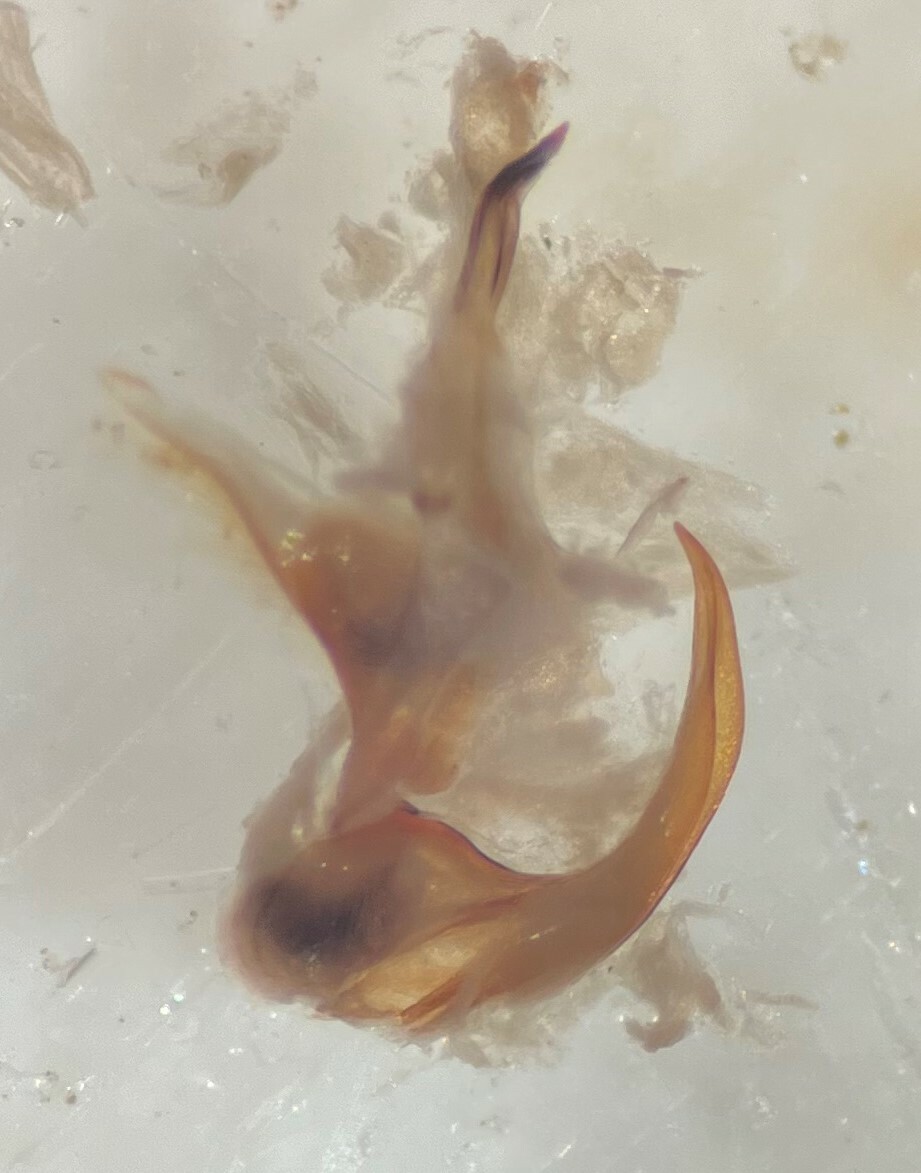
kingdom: Animalia
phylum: Arthropoda
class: Insecta
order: Coleoptera
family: Dytiscidae
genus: Agabus
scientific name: Agabus anthracinus
